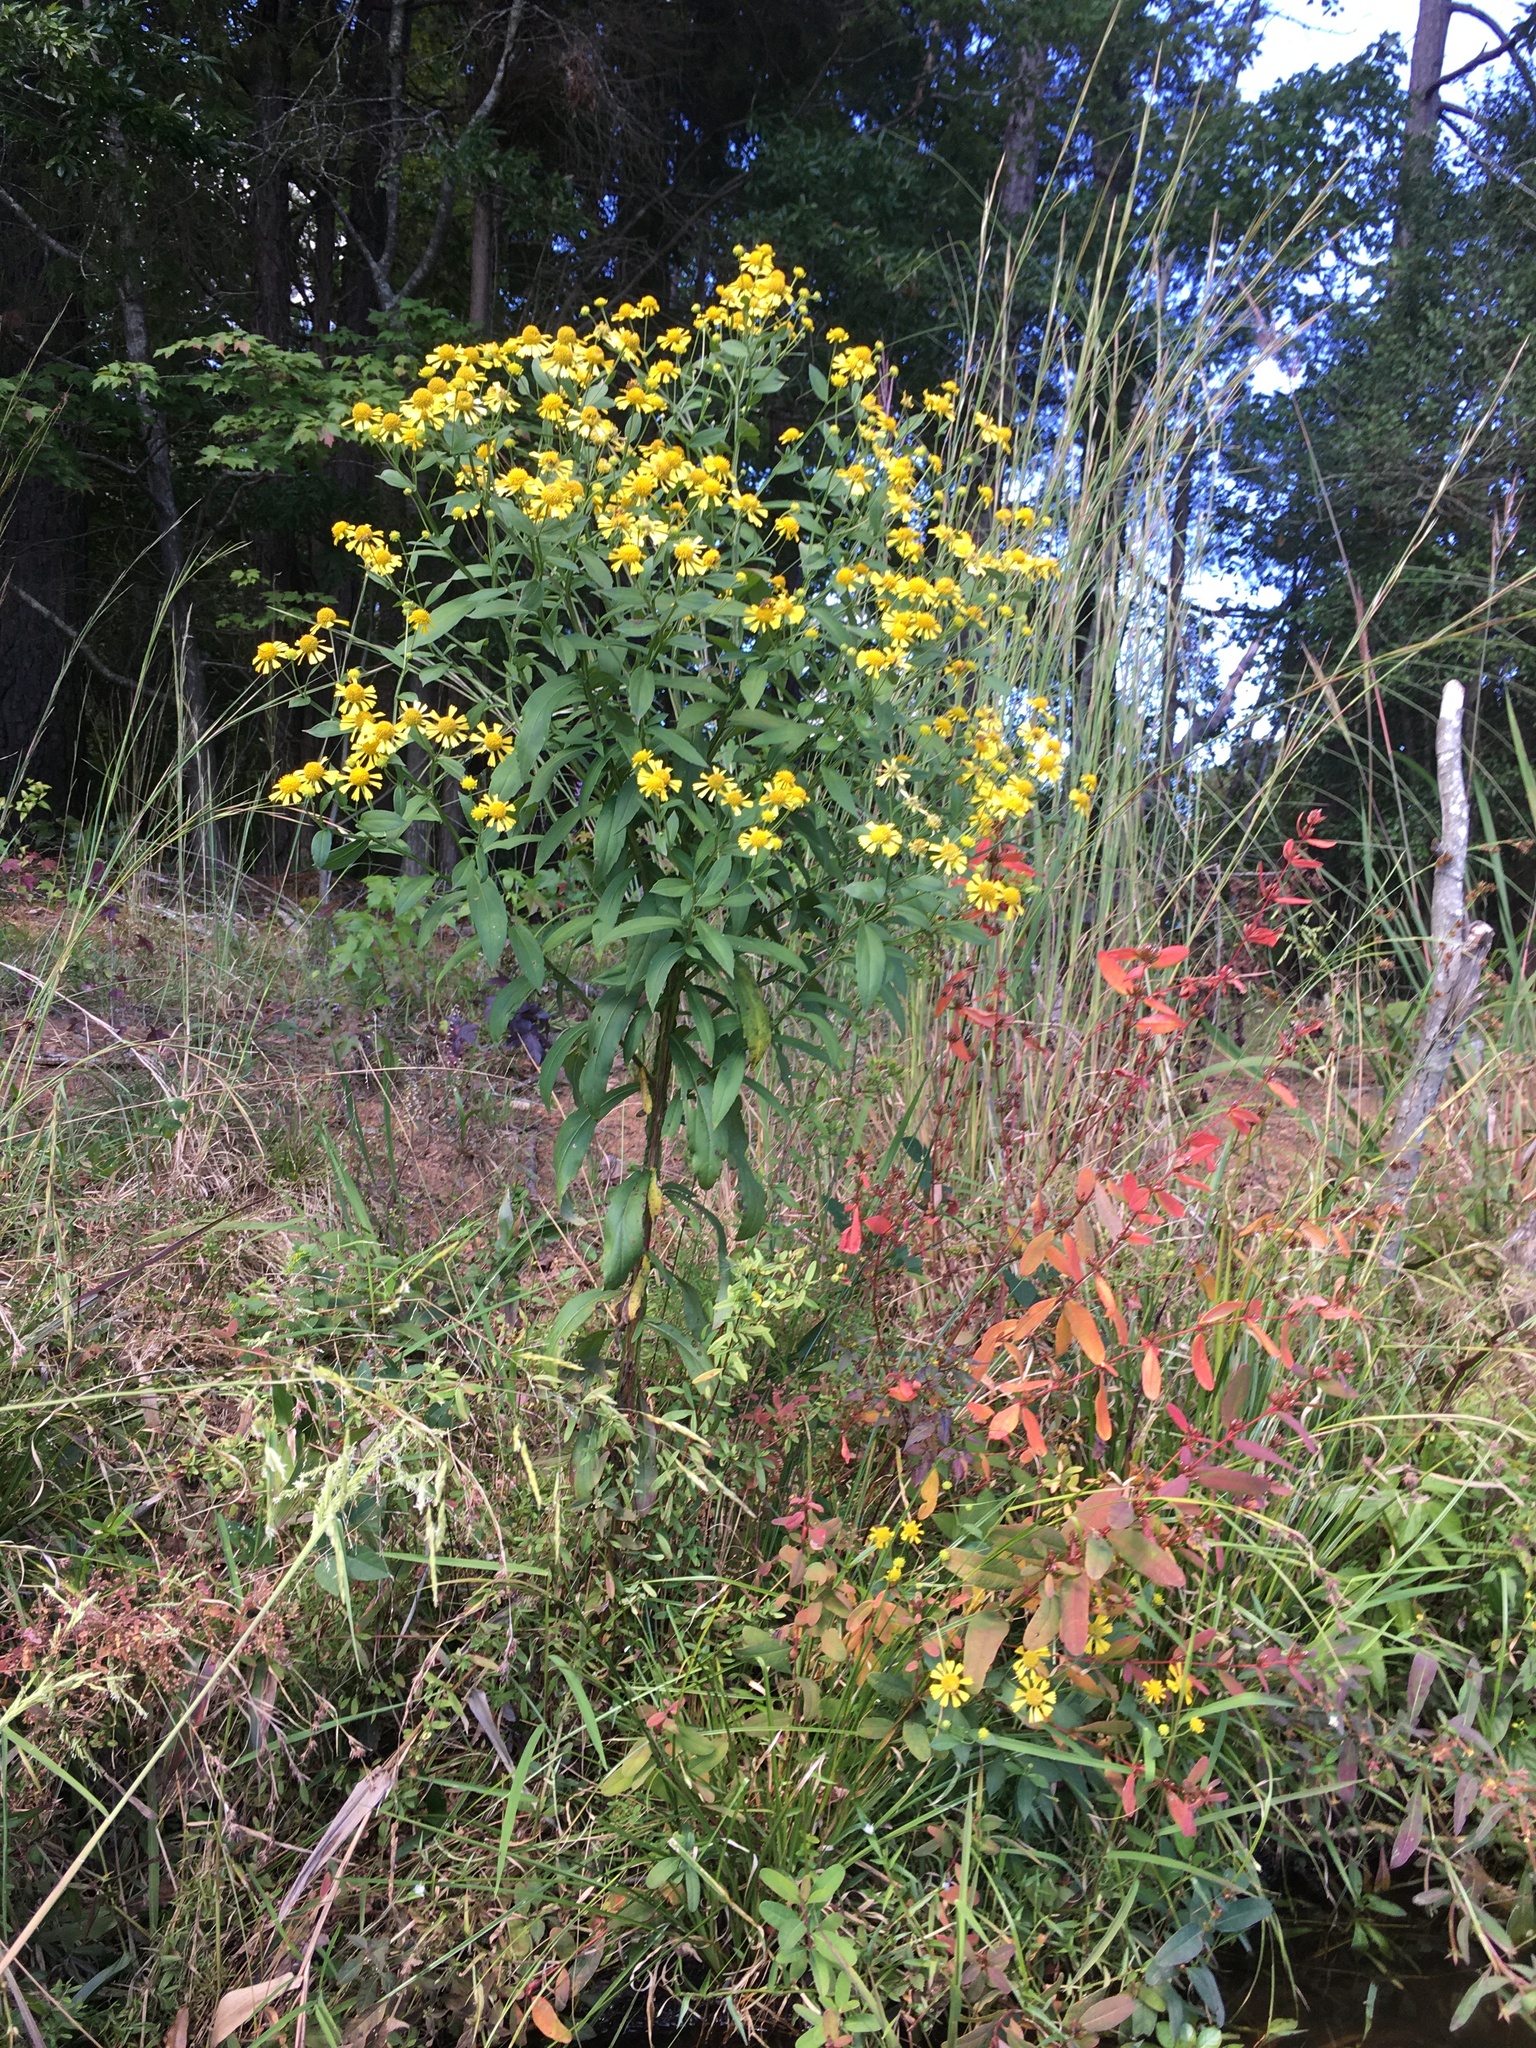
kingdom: Plantae
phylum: Tracheophyta
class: Magnoliopsida
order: Asterales
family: Asteraceae
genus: Helenium
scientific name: Helenium autumnale
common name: Sneezeweed
